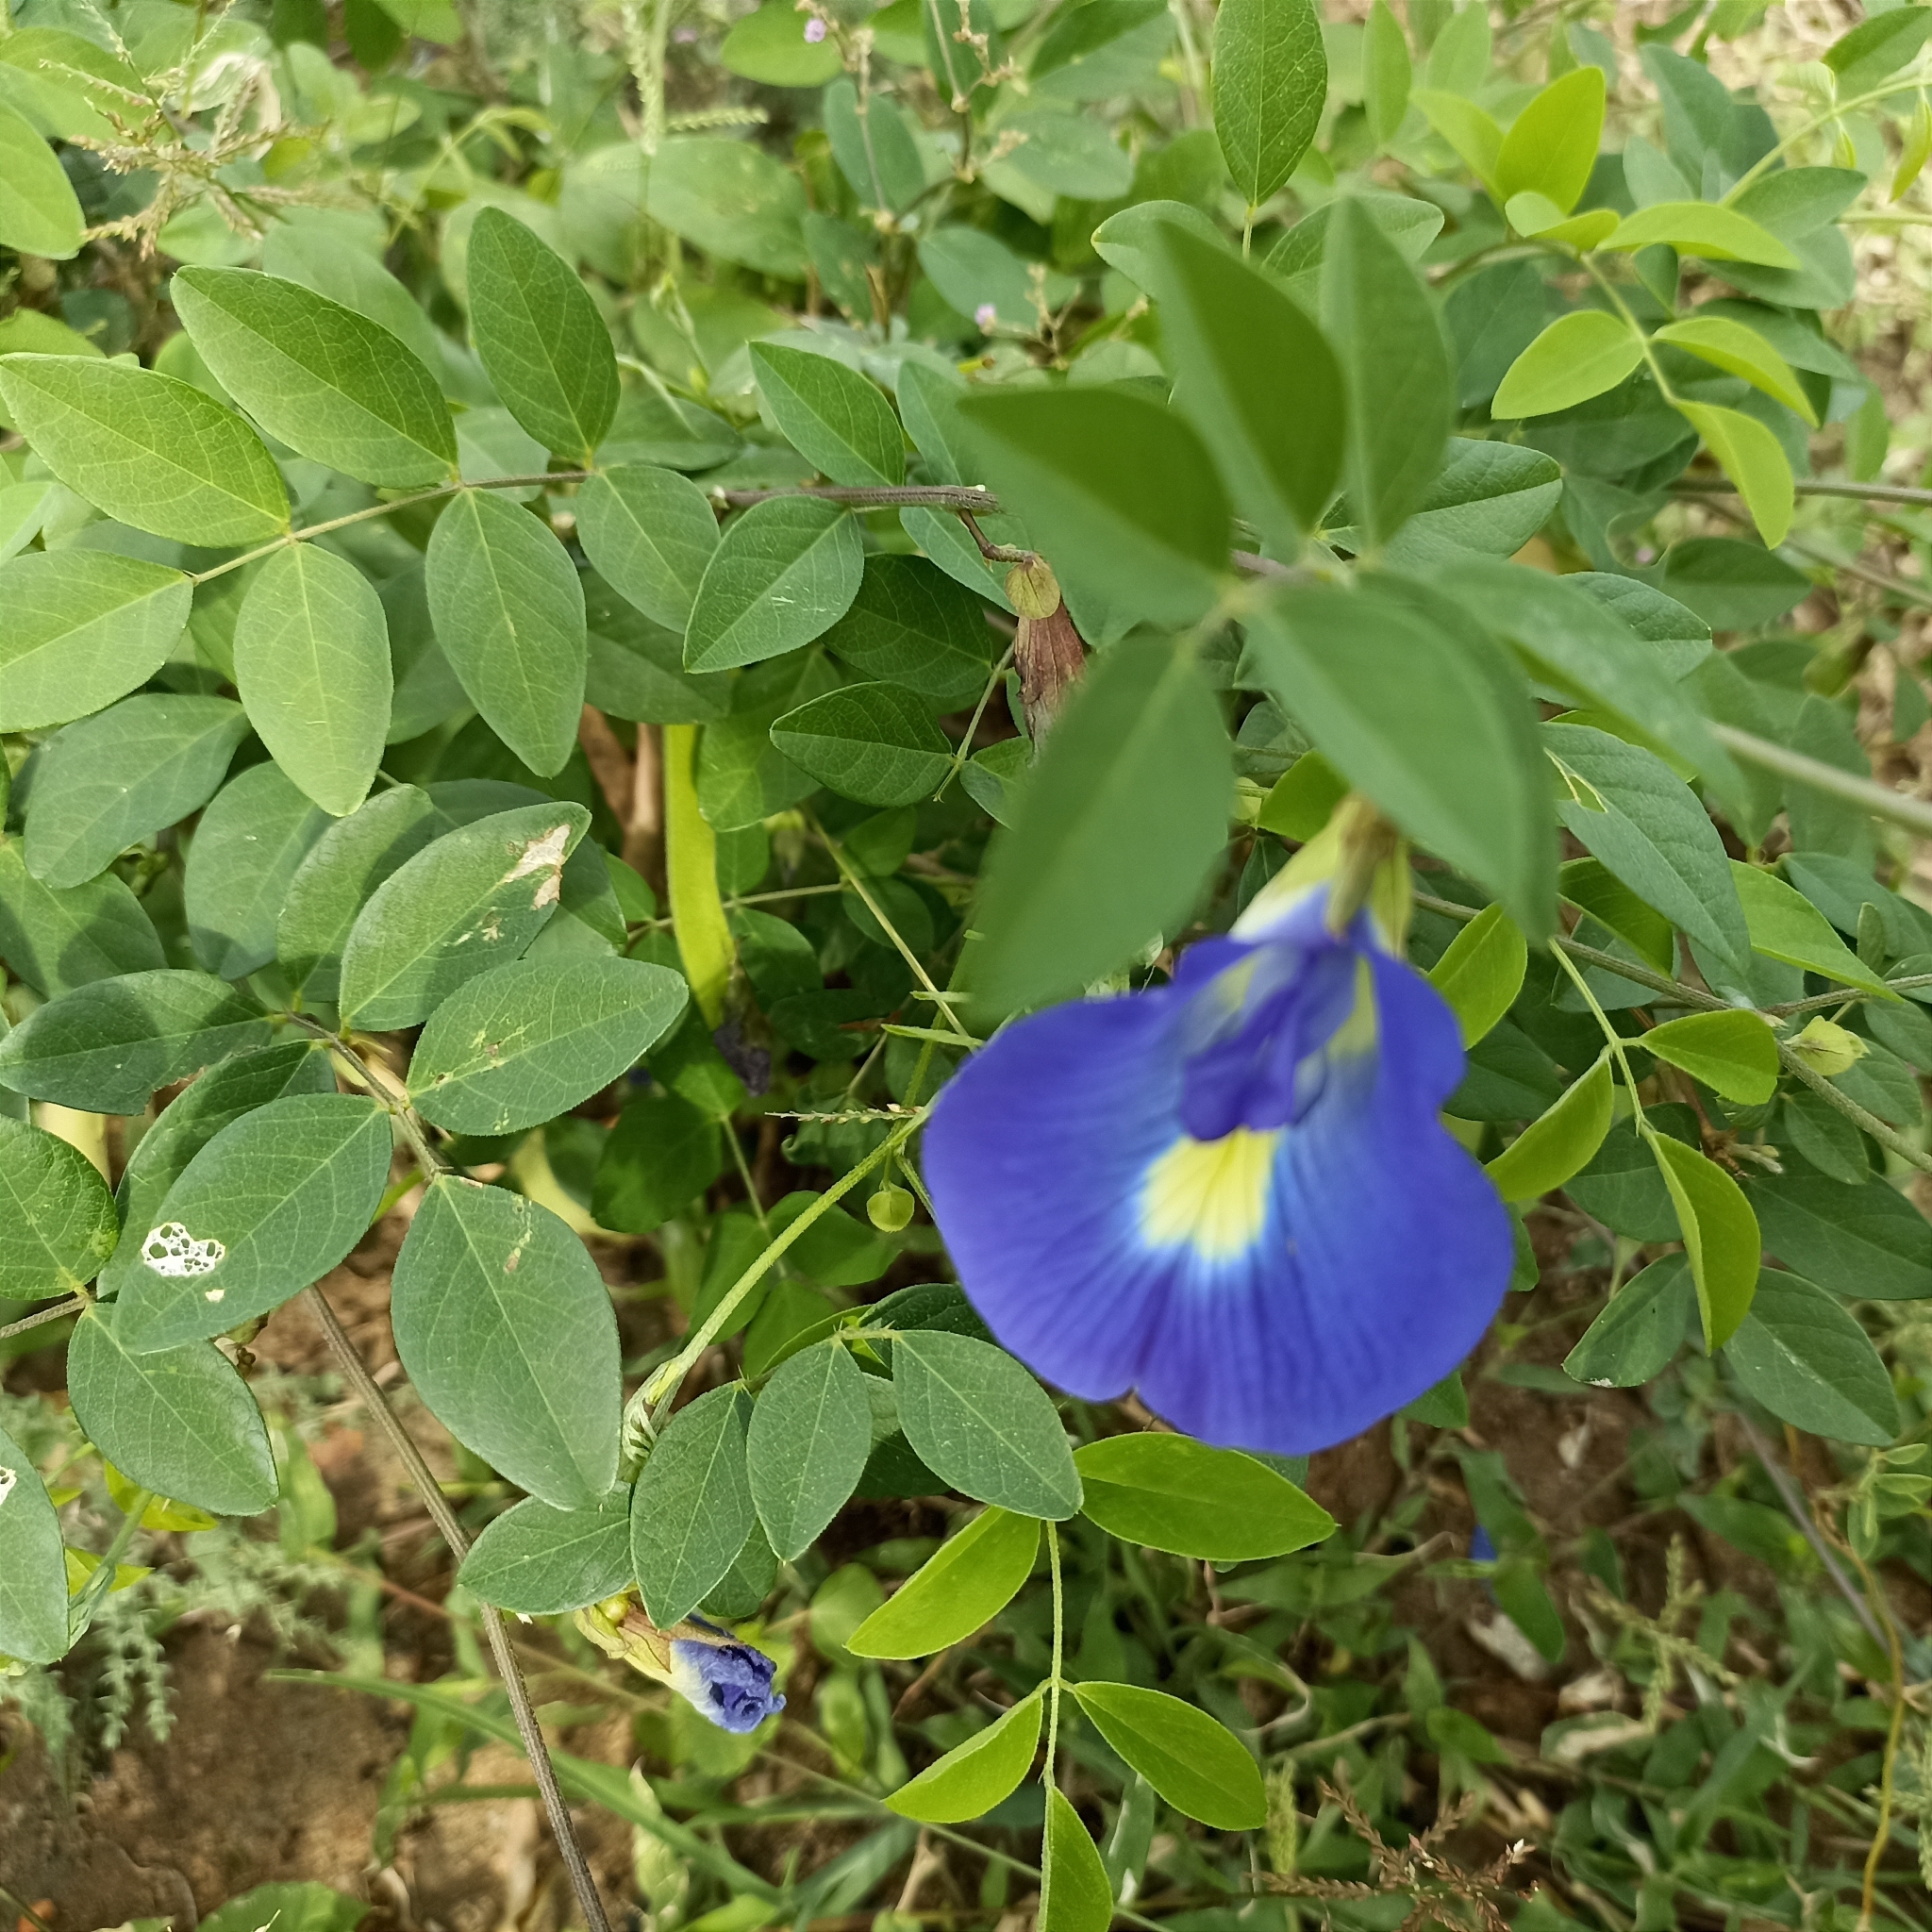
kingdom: Plantae
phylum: Tracheophyta
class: Magnoliopsida
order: Fabales
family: Fabaceae
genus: Clitoria
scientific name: Clitoria ternatea
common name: Asian pigeonwings
